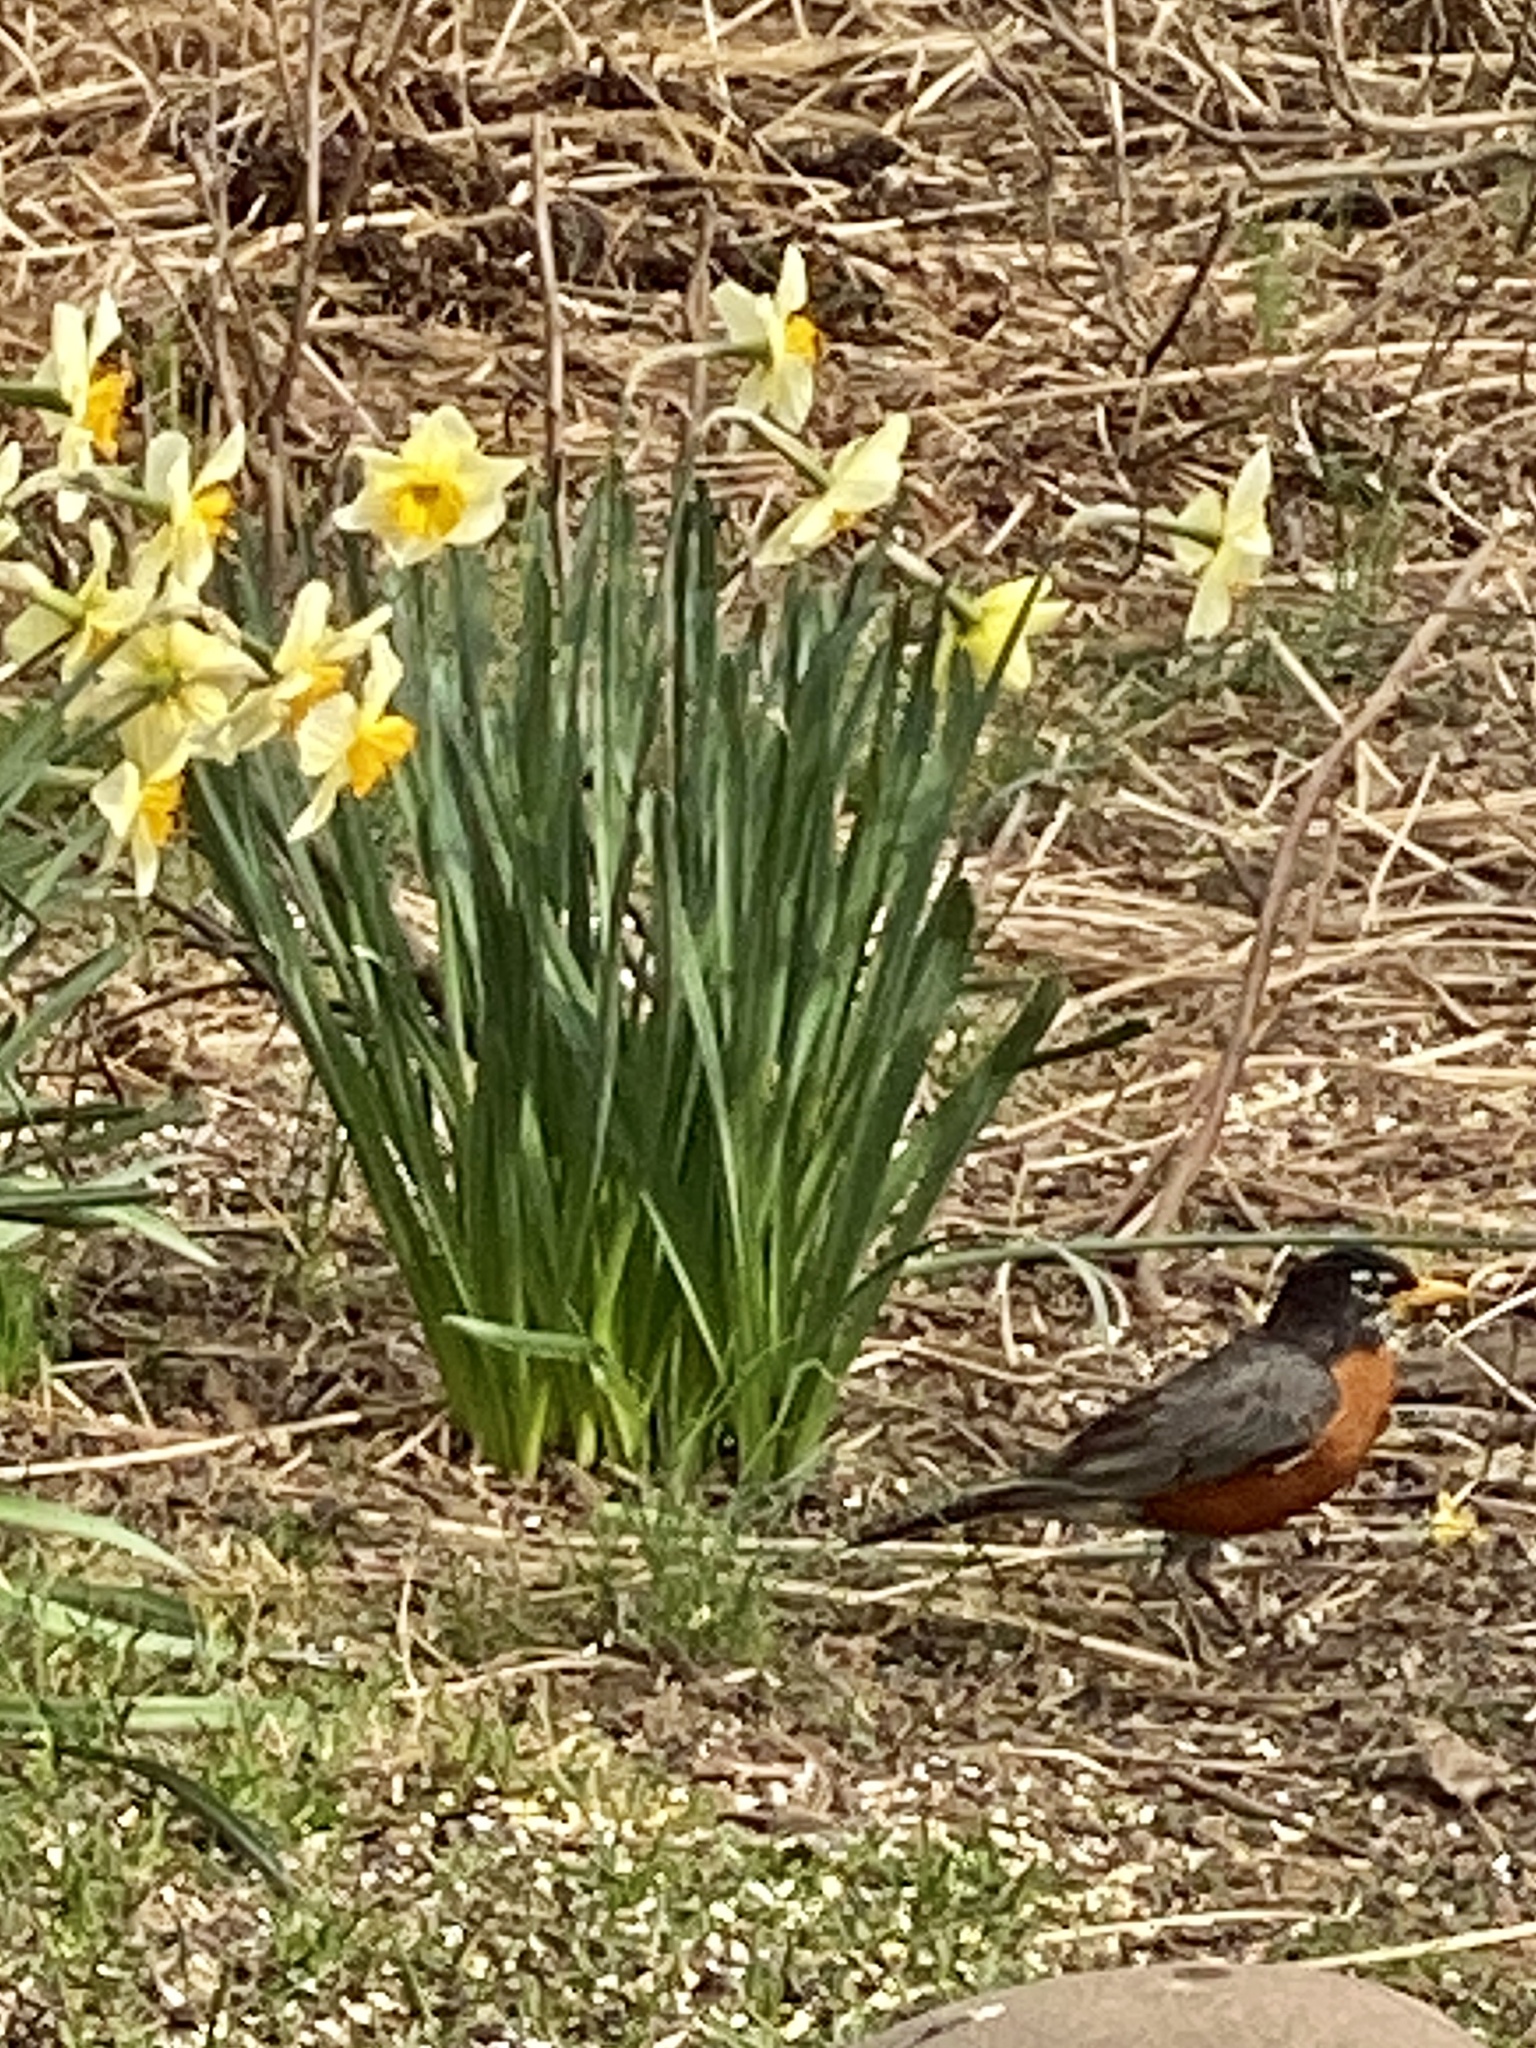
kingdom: Animalia
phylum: Chordata
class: Aves
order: Passeriformes
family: Turdidae
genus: Turdus
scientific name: Turdus migratorius
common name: American robin
